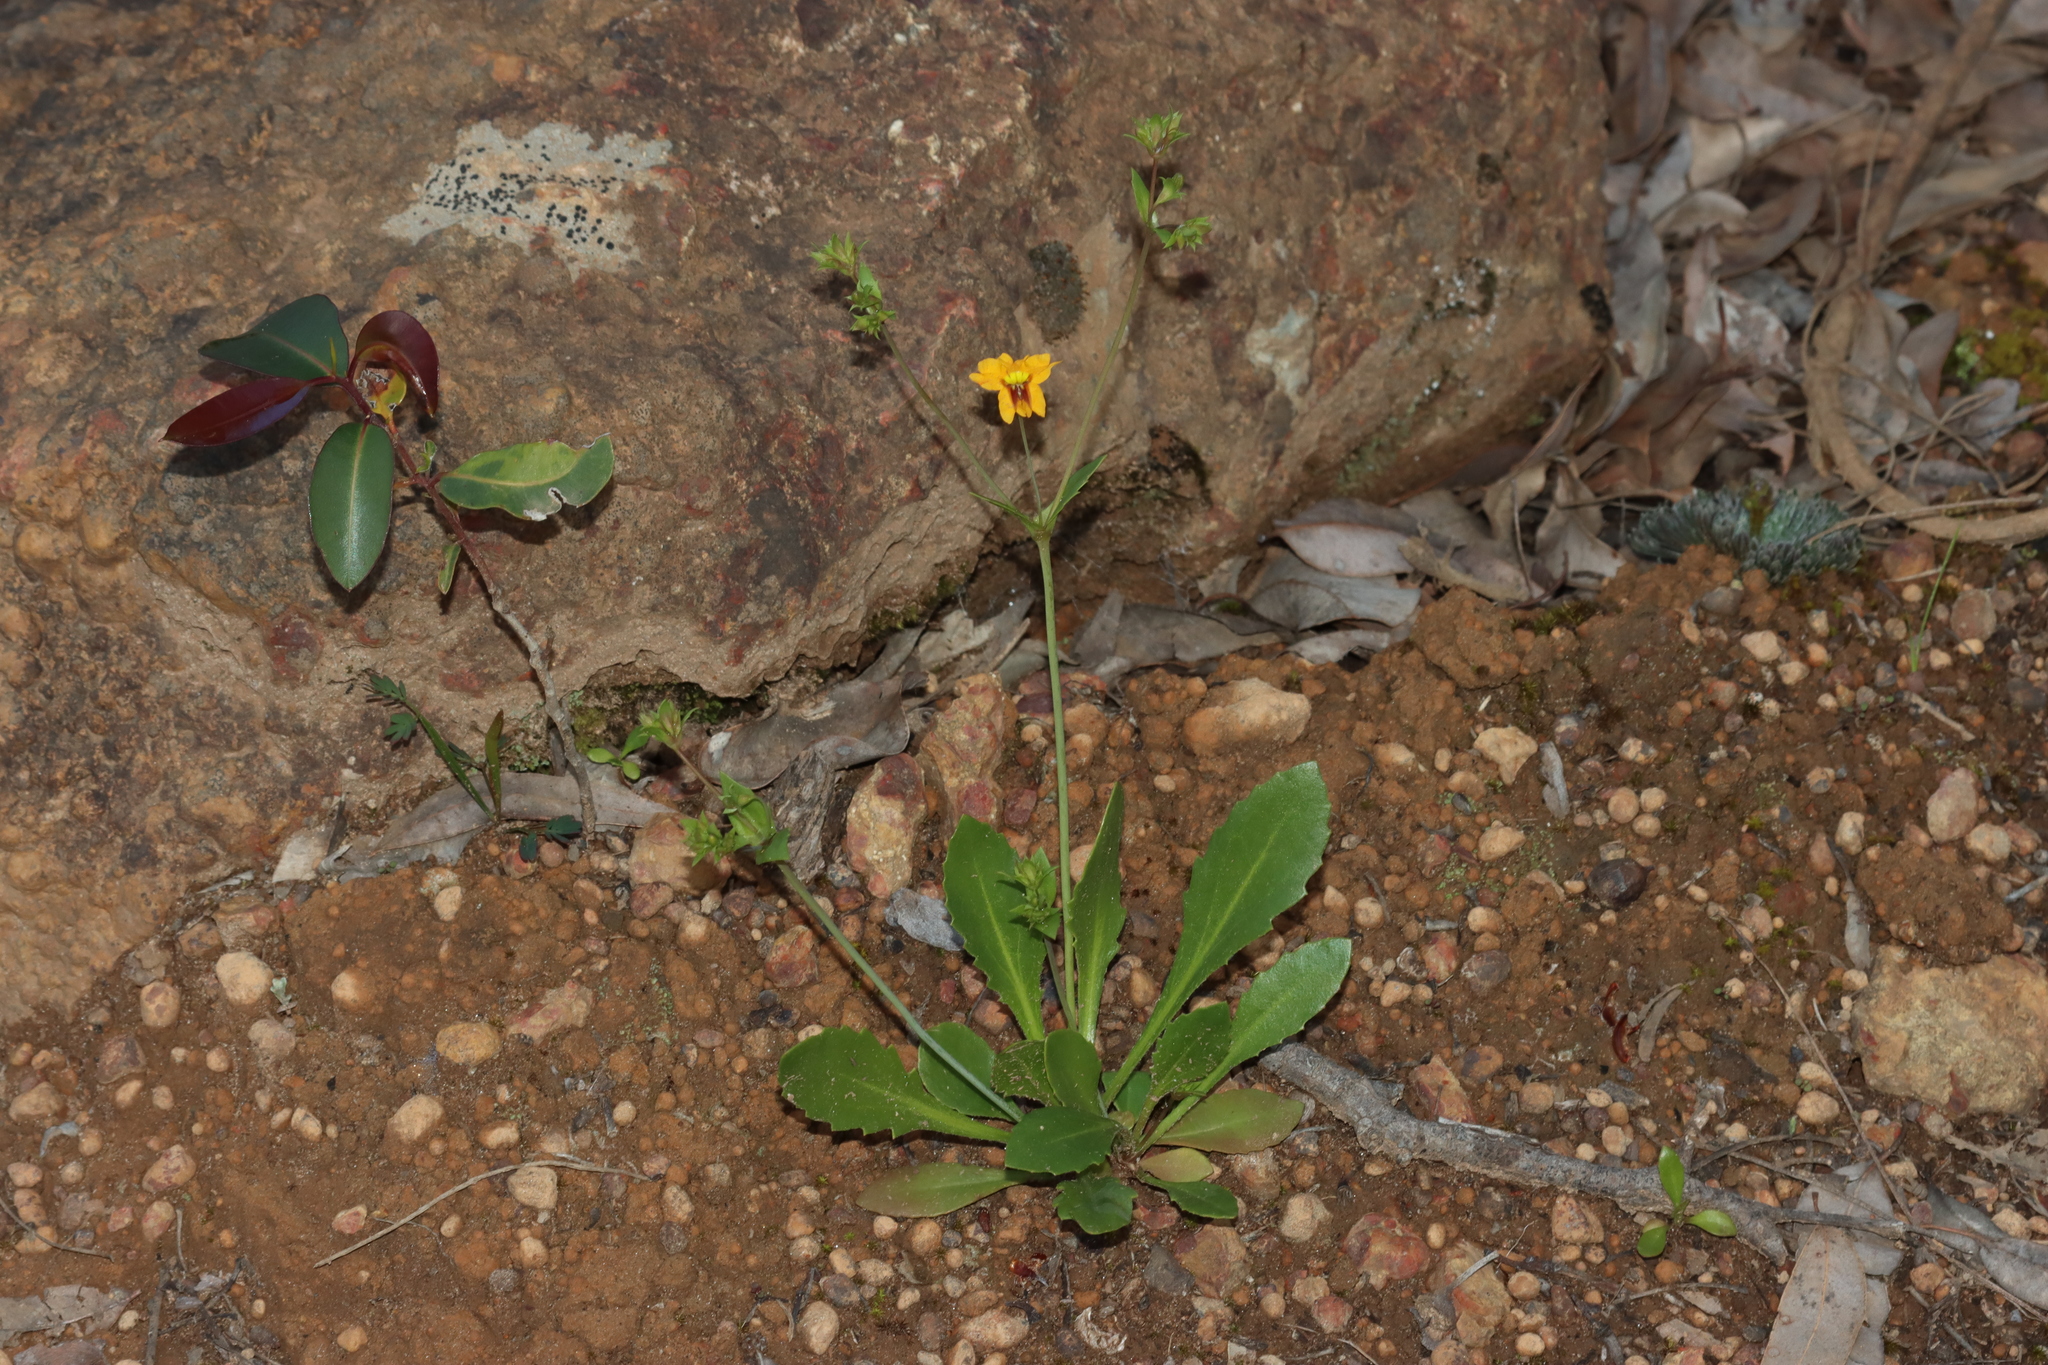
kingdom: Plantae
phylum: Tracheophyta
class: Magnoliopsida
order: Asterales
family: Goodeniaceae
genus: Goodenia
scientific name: Goodenia trinervis
